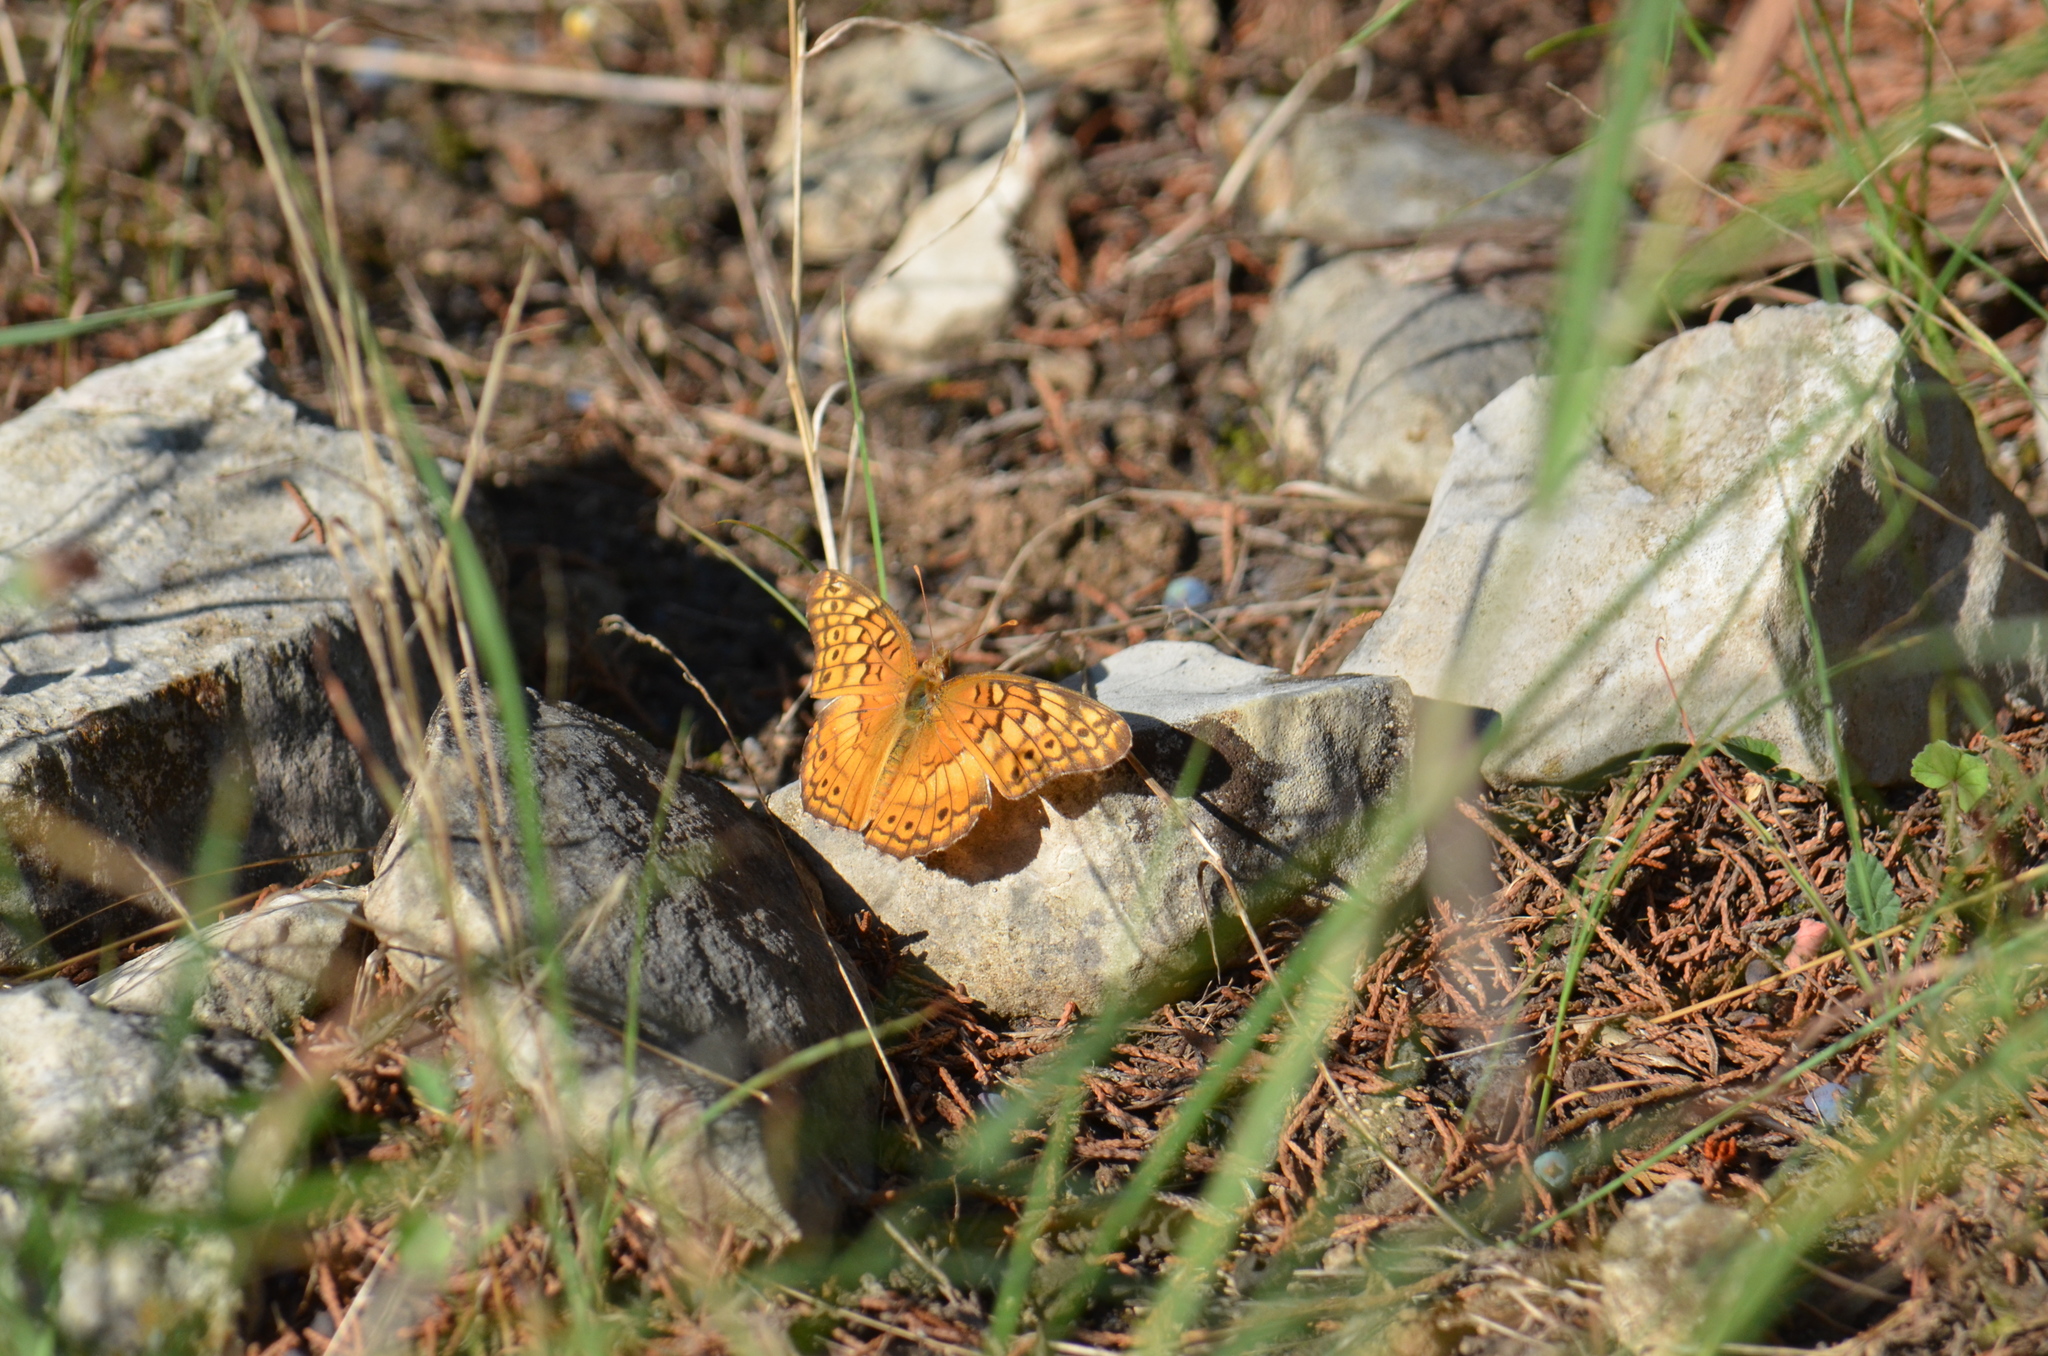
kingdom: Animalia
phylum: Arthropoda
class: Insecta
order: Lepidoptera
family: Nymphalidae
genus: Euptoieta
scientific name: Euptoieta claudia
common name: Variegated fritillary
